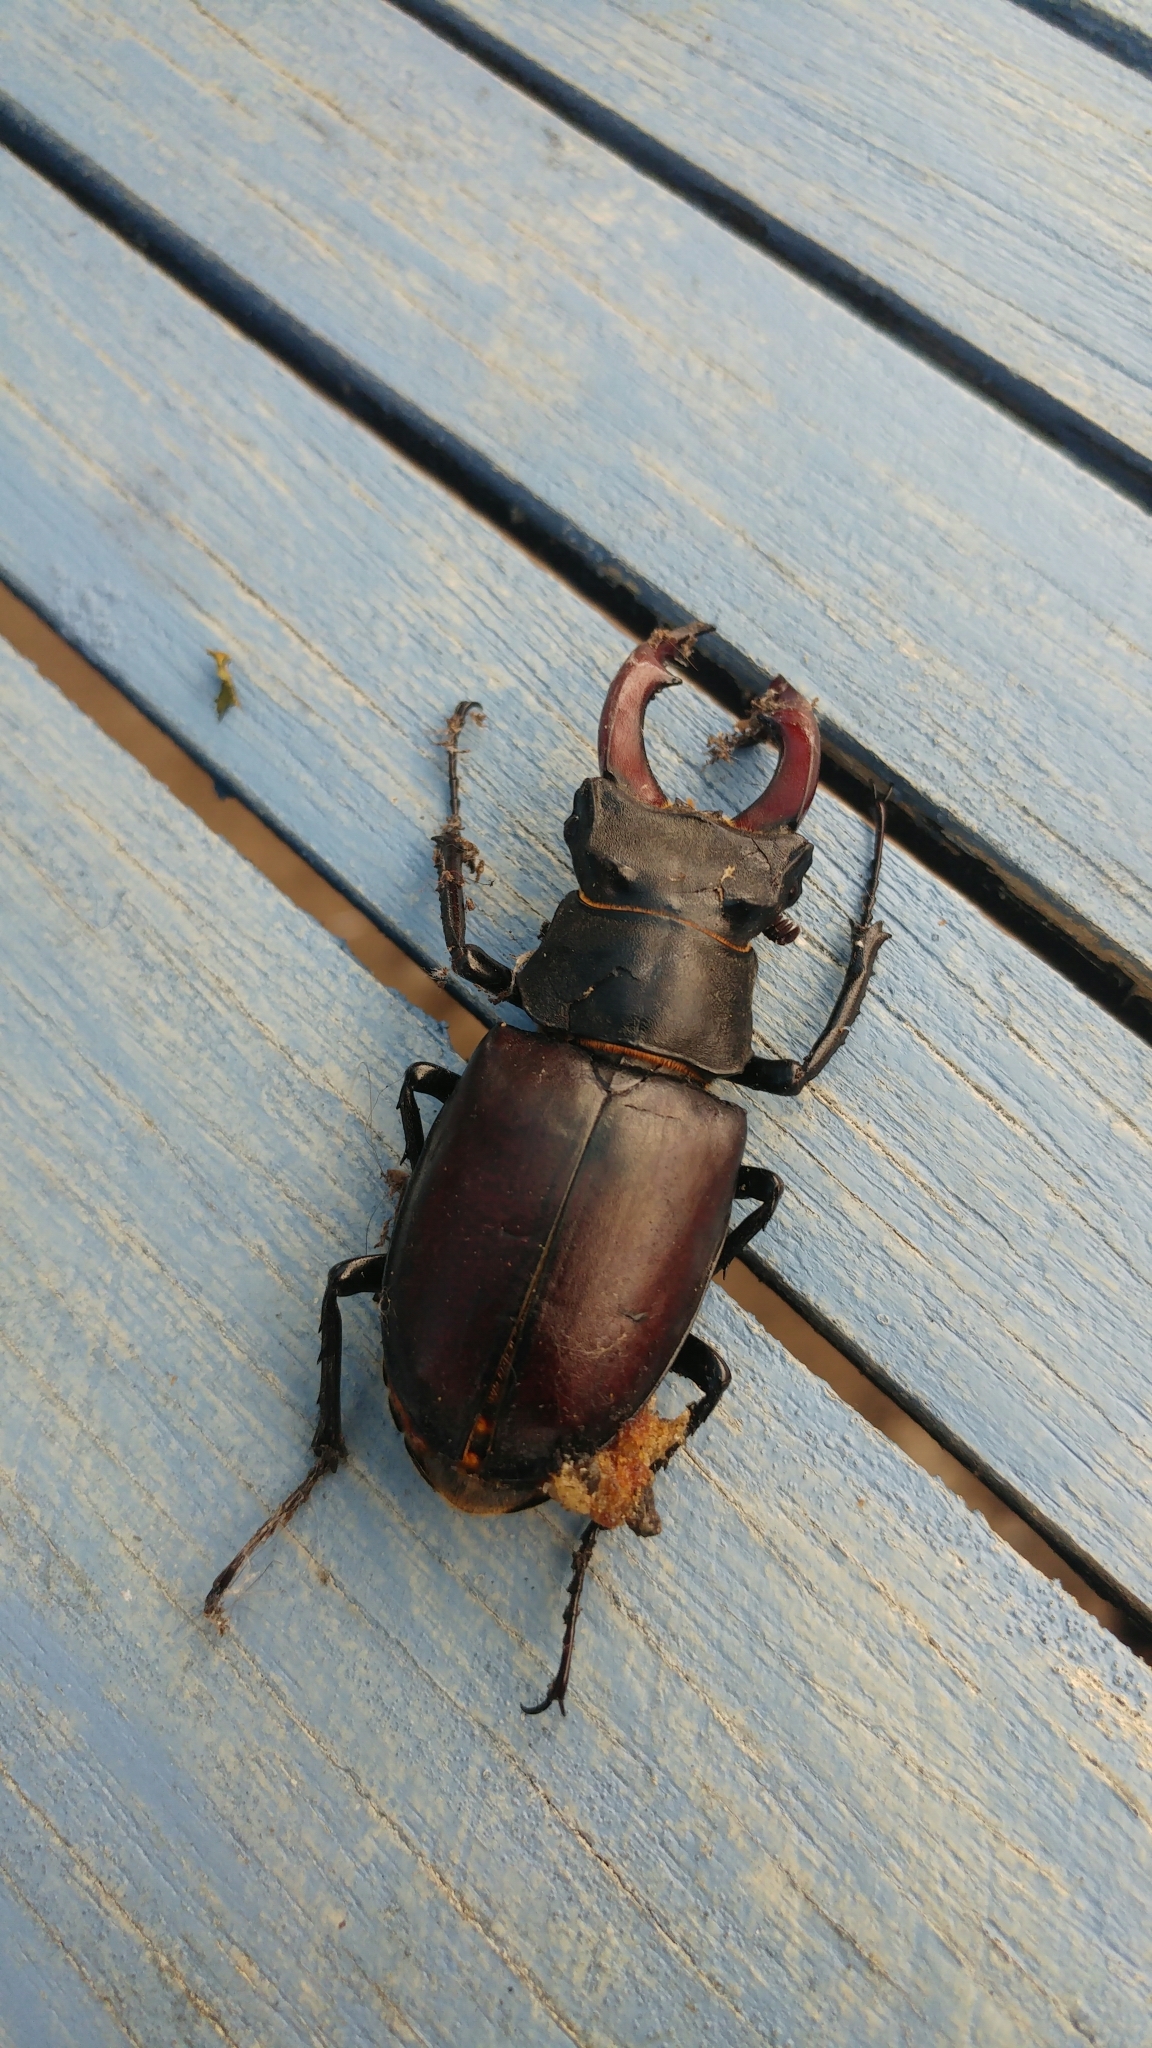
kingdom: Animalia
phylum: Arthropoda
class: Insecta
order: Coleoptera
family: Lucanidae
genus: Lucanus
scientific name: Lucanus cervus
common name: Stag beetle
